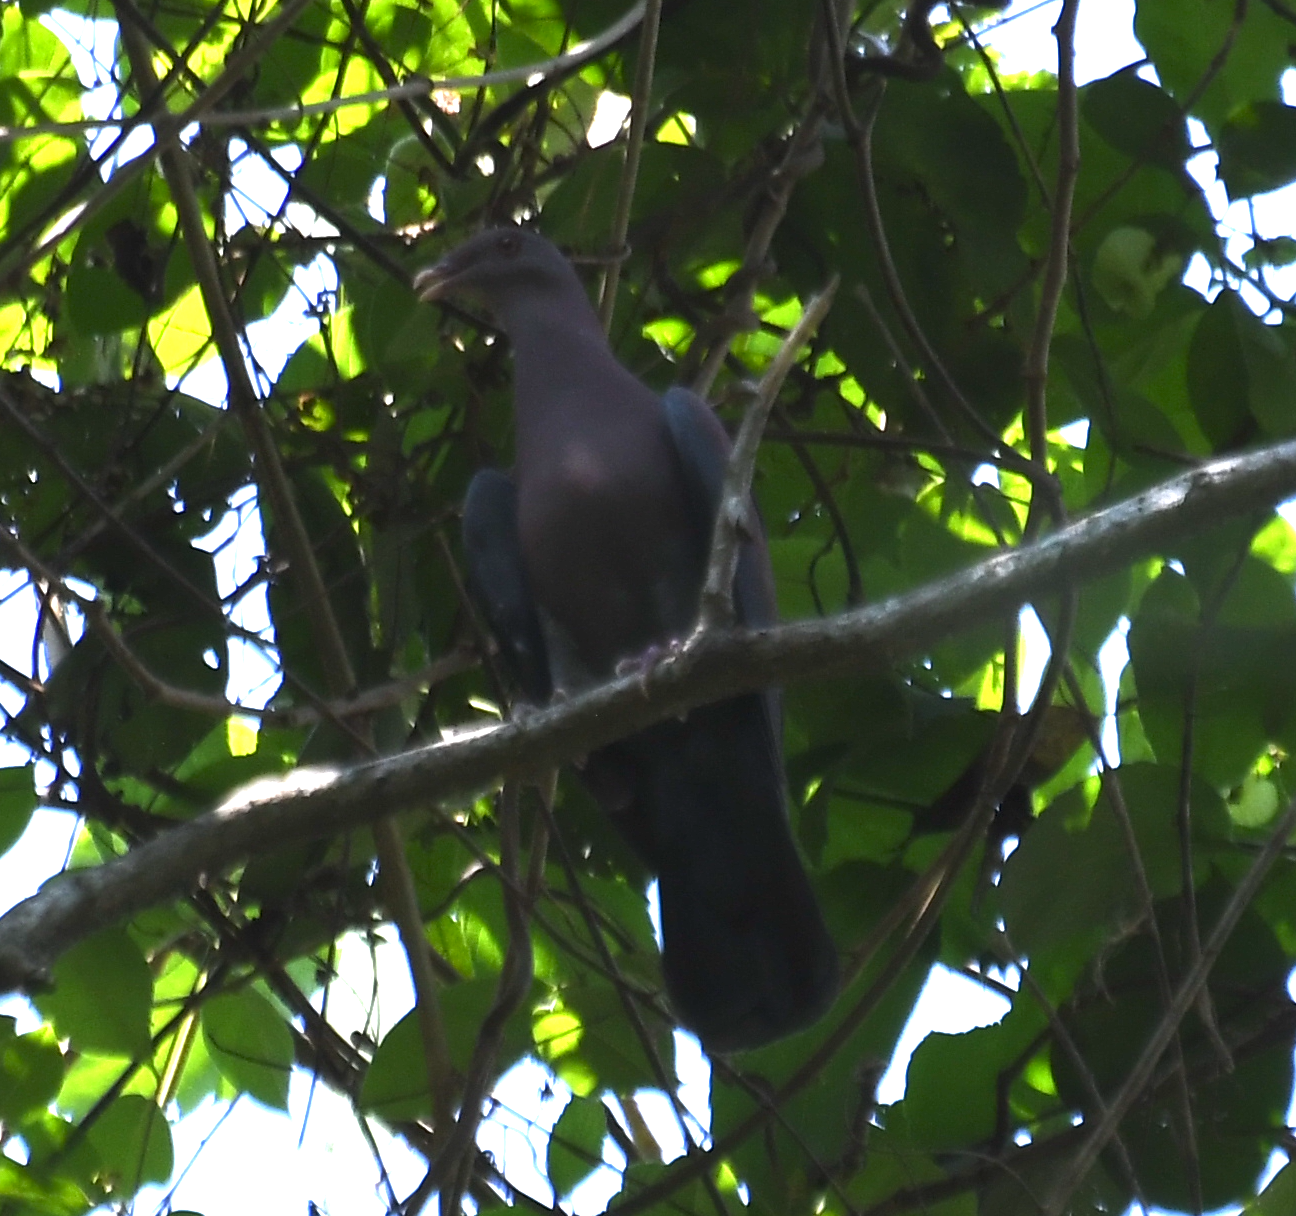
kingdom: Animalia
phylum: Chordata
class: Aves
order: Columbiformes
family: Columbidae
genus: Patagioenas
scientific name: Patagioenas flavirostris
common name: Red-billed pigeon
